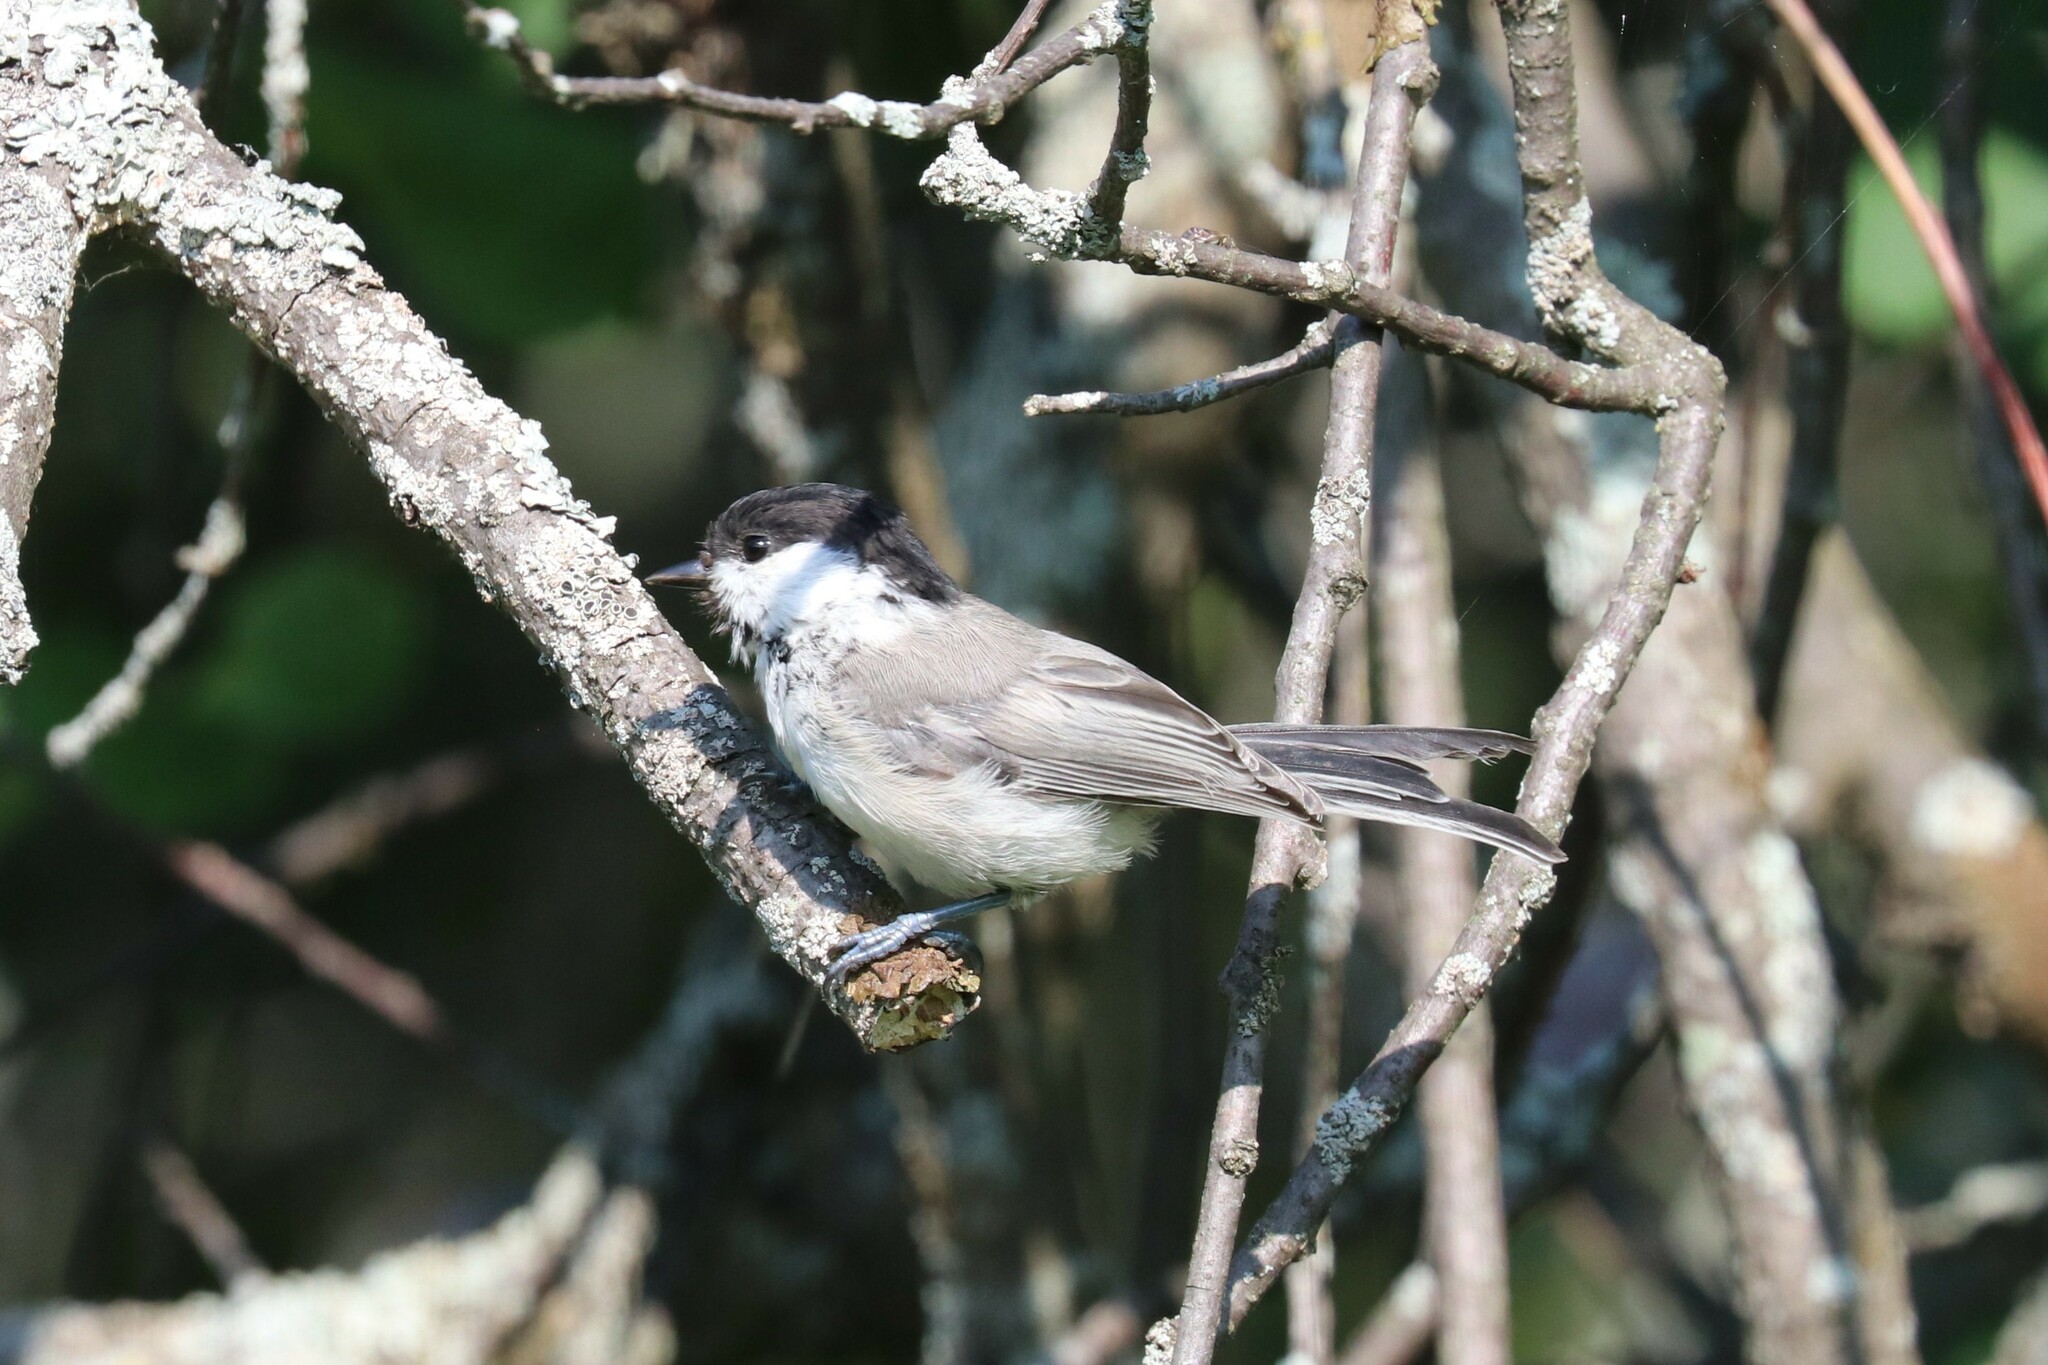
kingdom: Animalia
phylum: Chordata
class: Aves
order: Passeriformes
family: Paridae
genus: Poecile
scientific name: Poecile montanus
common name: Willow tit
